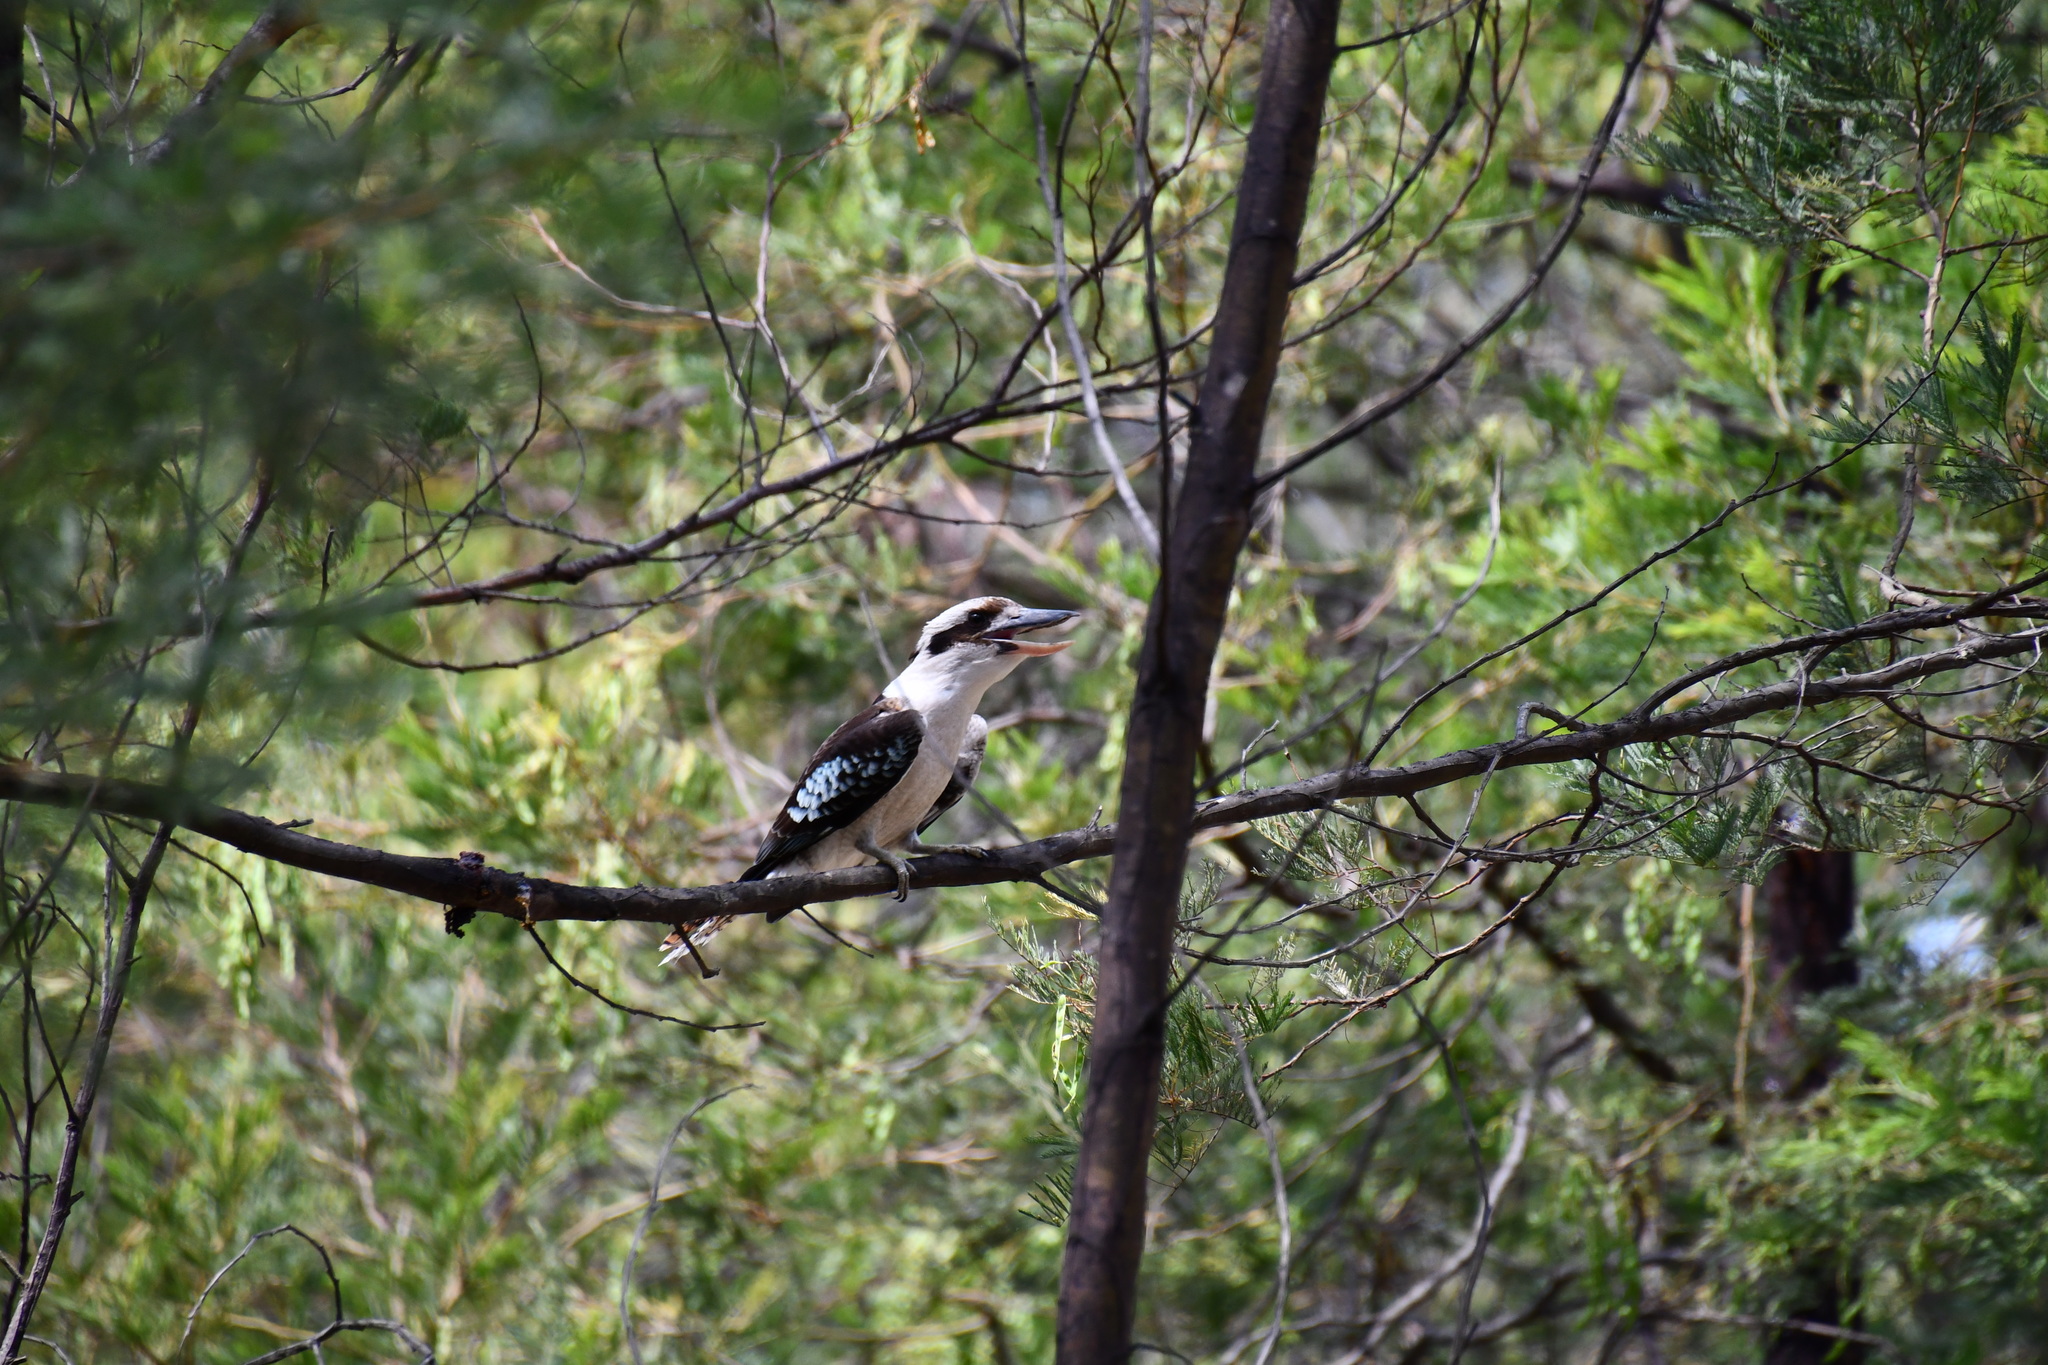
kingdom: Animalia
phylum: Chordata
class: Aves
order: Coraciiformes
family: Alcedinidae
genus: Dacelo
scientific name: Dacelo novaeguineae
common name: Laughing kookaburra
